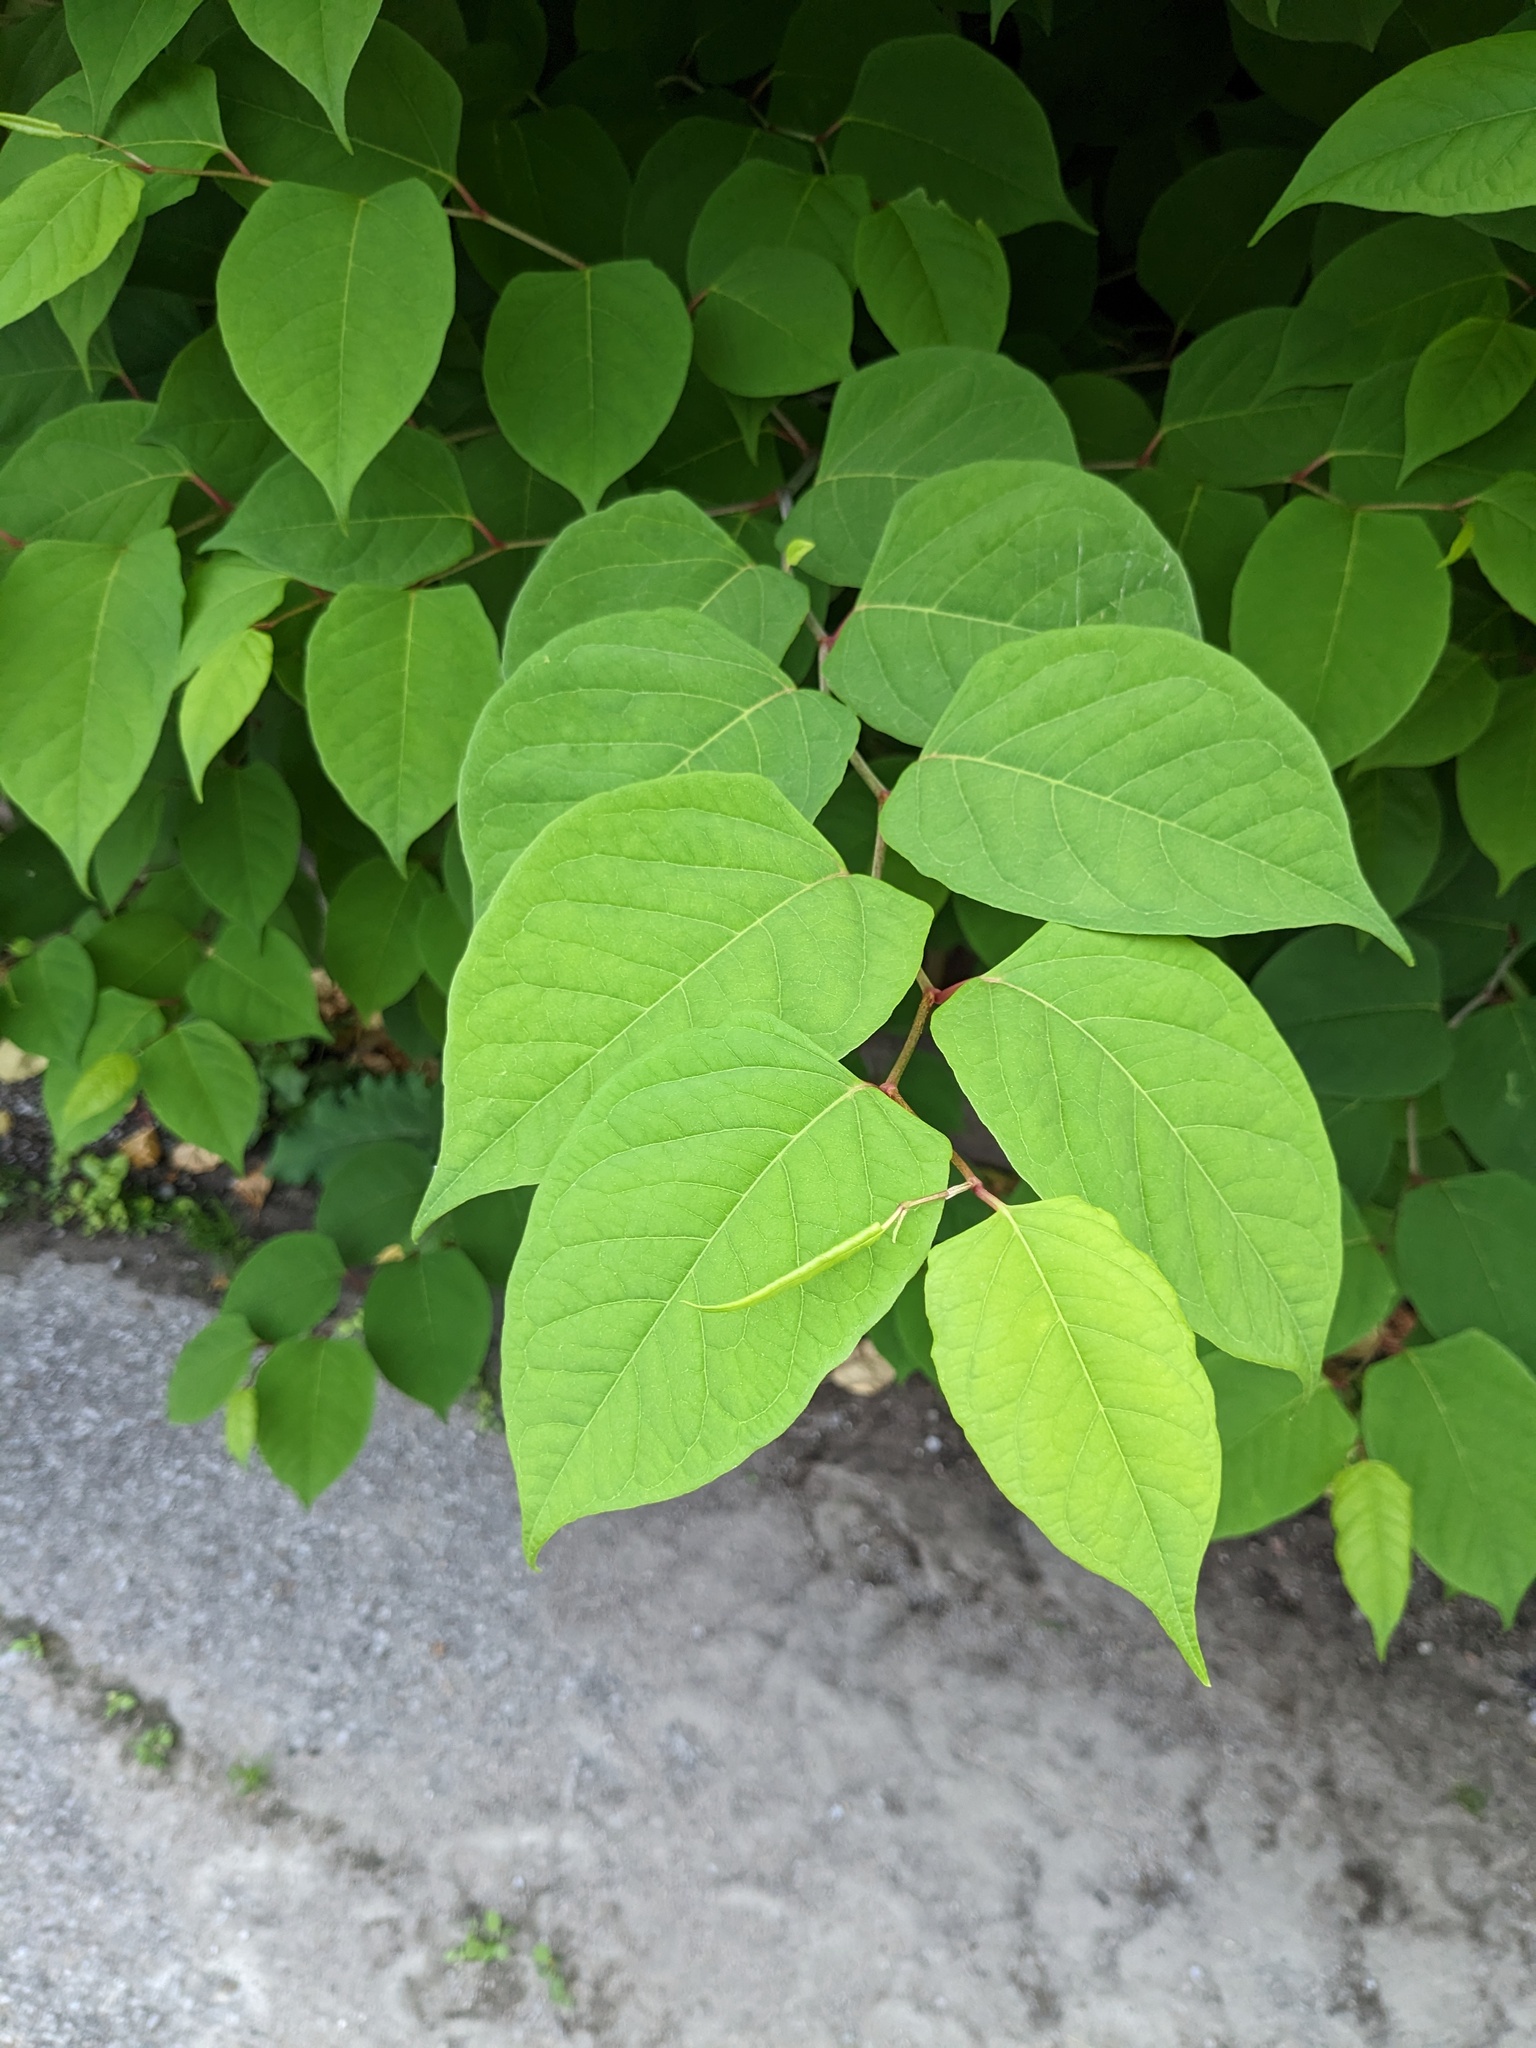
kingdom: Plantae
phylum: Tracheophyta
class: Magnoliopsida
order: Caryophyllales
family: Polygonaceae
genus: Reynoutria
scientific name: Reynoutria japonica
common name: Japanese knotweed
